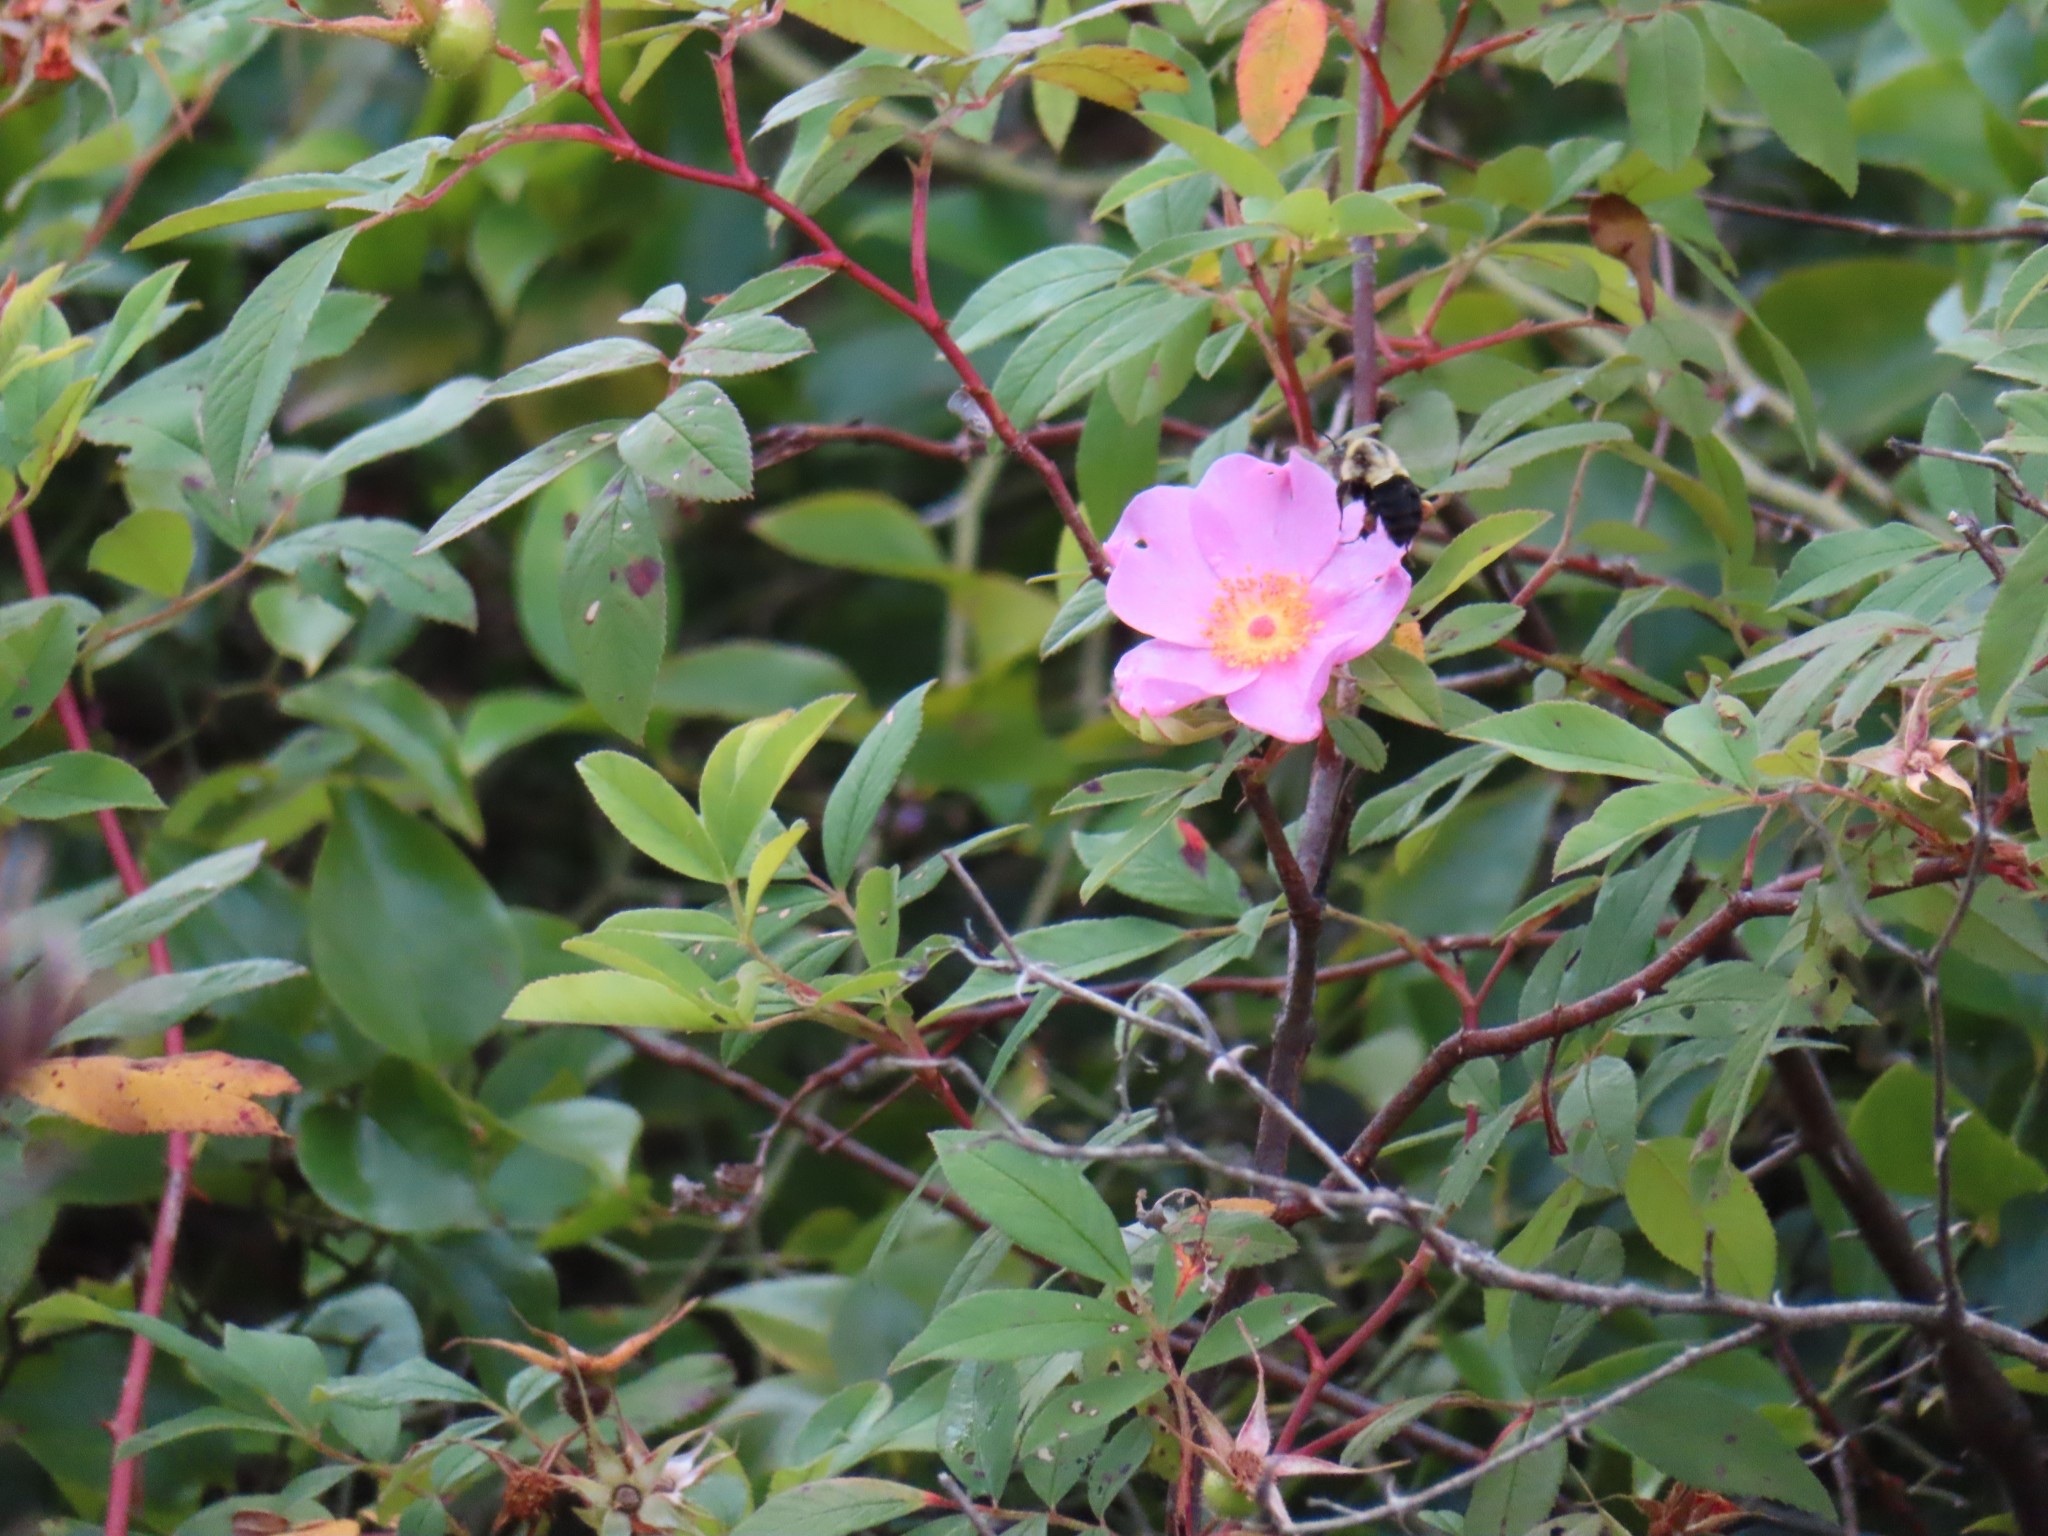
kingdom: Animalia
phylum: Arthropoda
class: Insecta
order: Hymenoptera
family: Apidae
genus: Bombus
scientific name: Bombus impatiens
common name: Common eastern bumble bee
